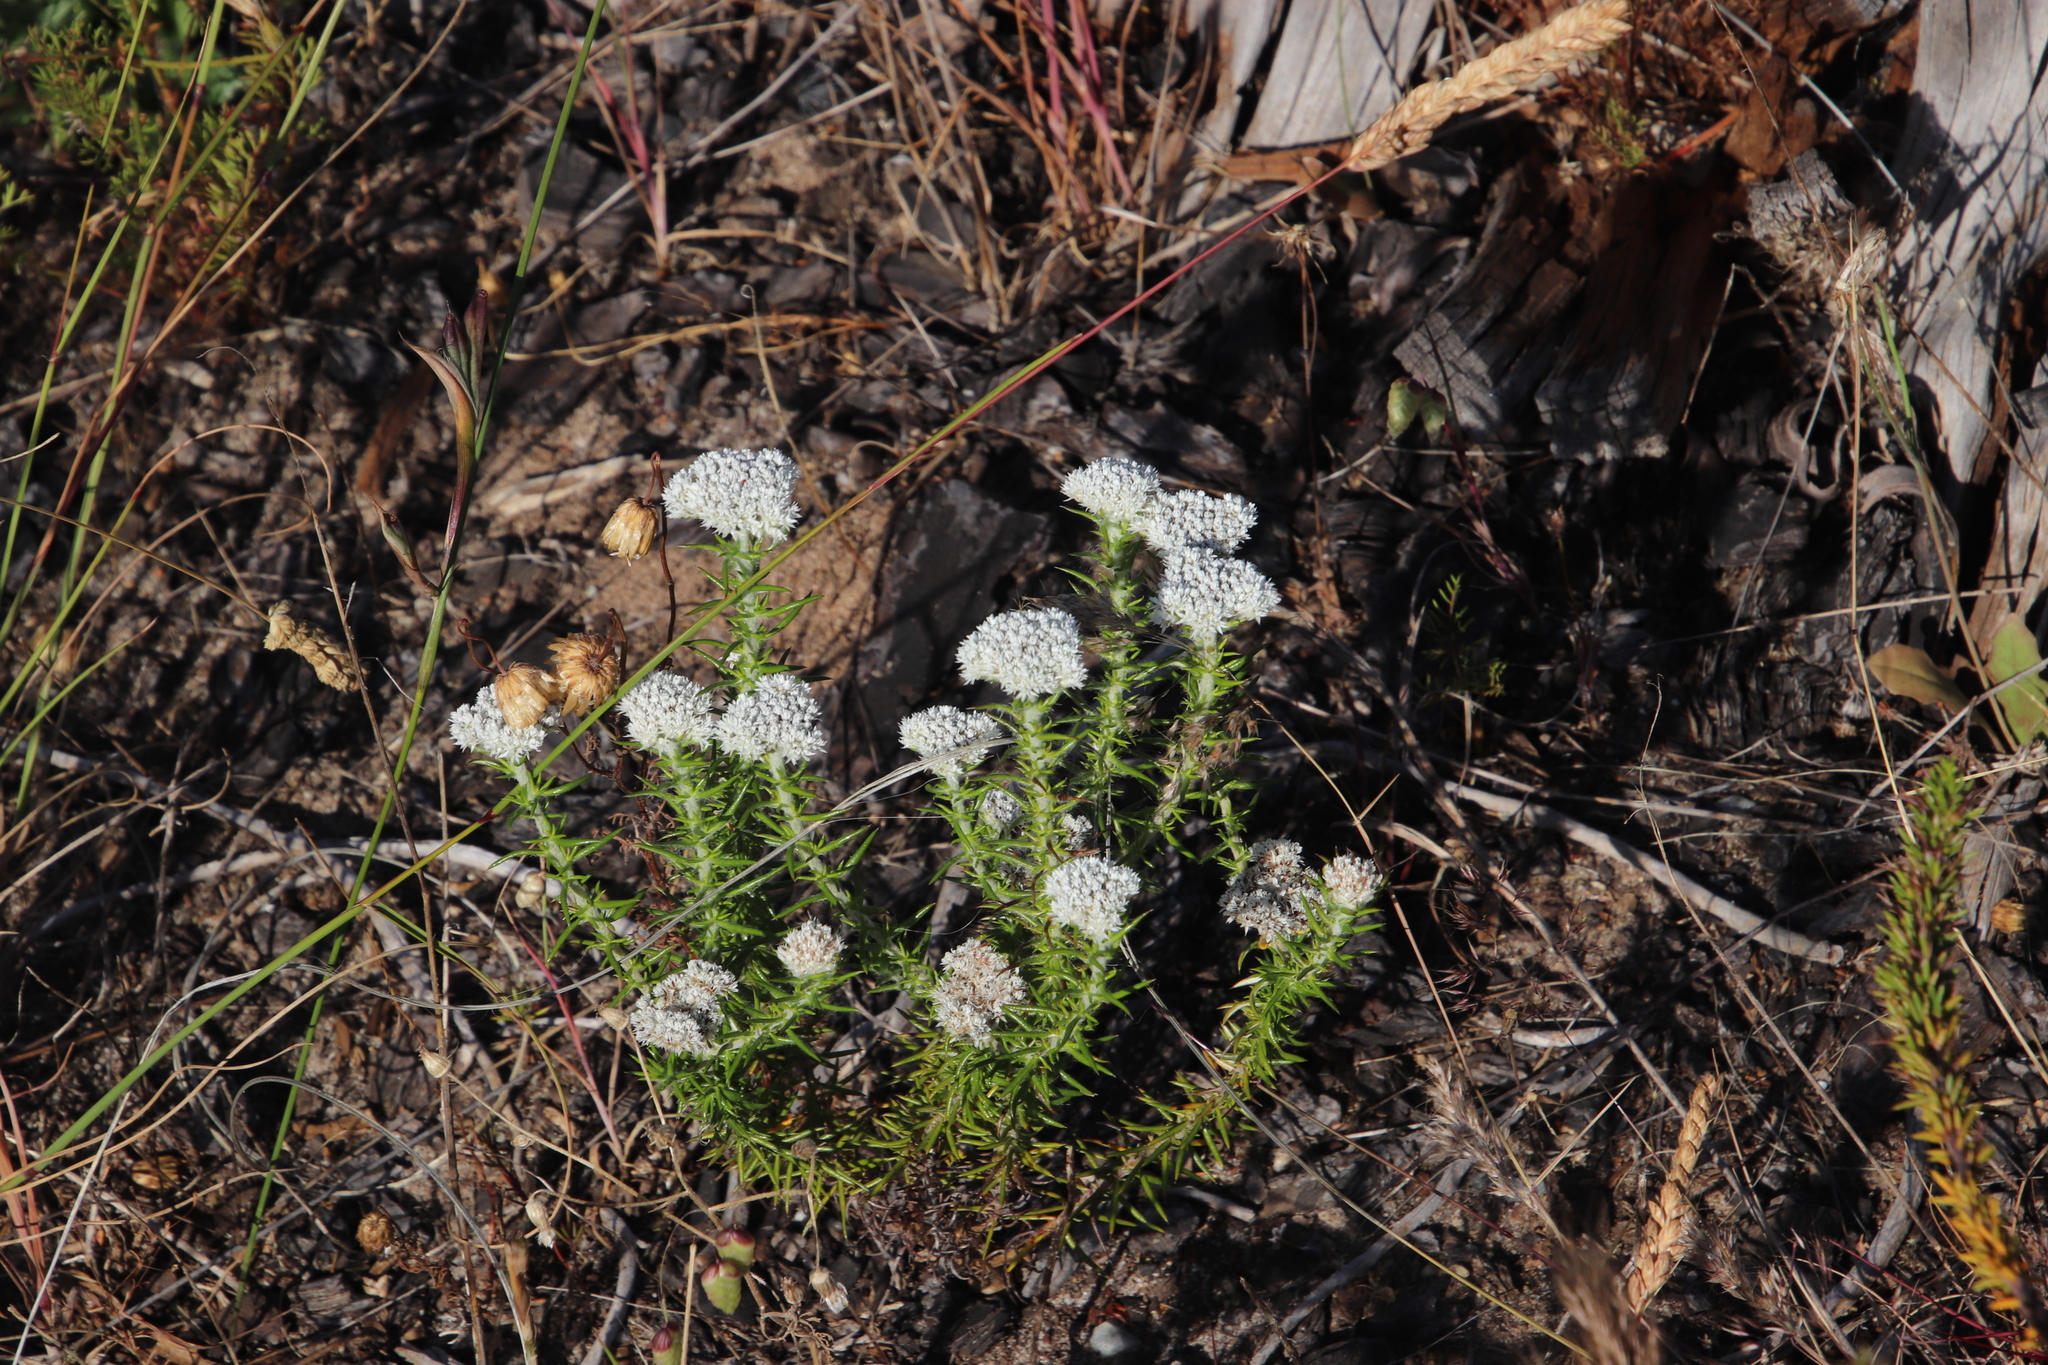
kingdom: Plantae
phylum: Tracheophyta
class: Magnoliopsida
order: Asterales
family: Asteraceae
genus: Metalasia
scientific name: Metalasia pulchella
